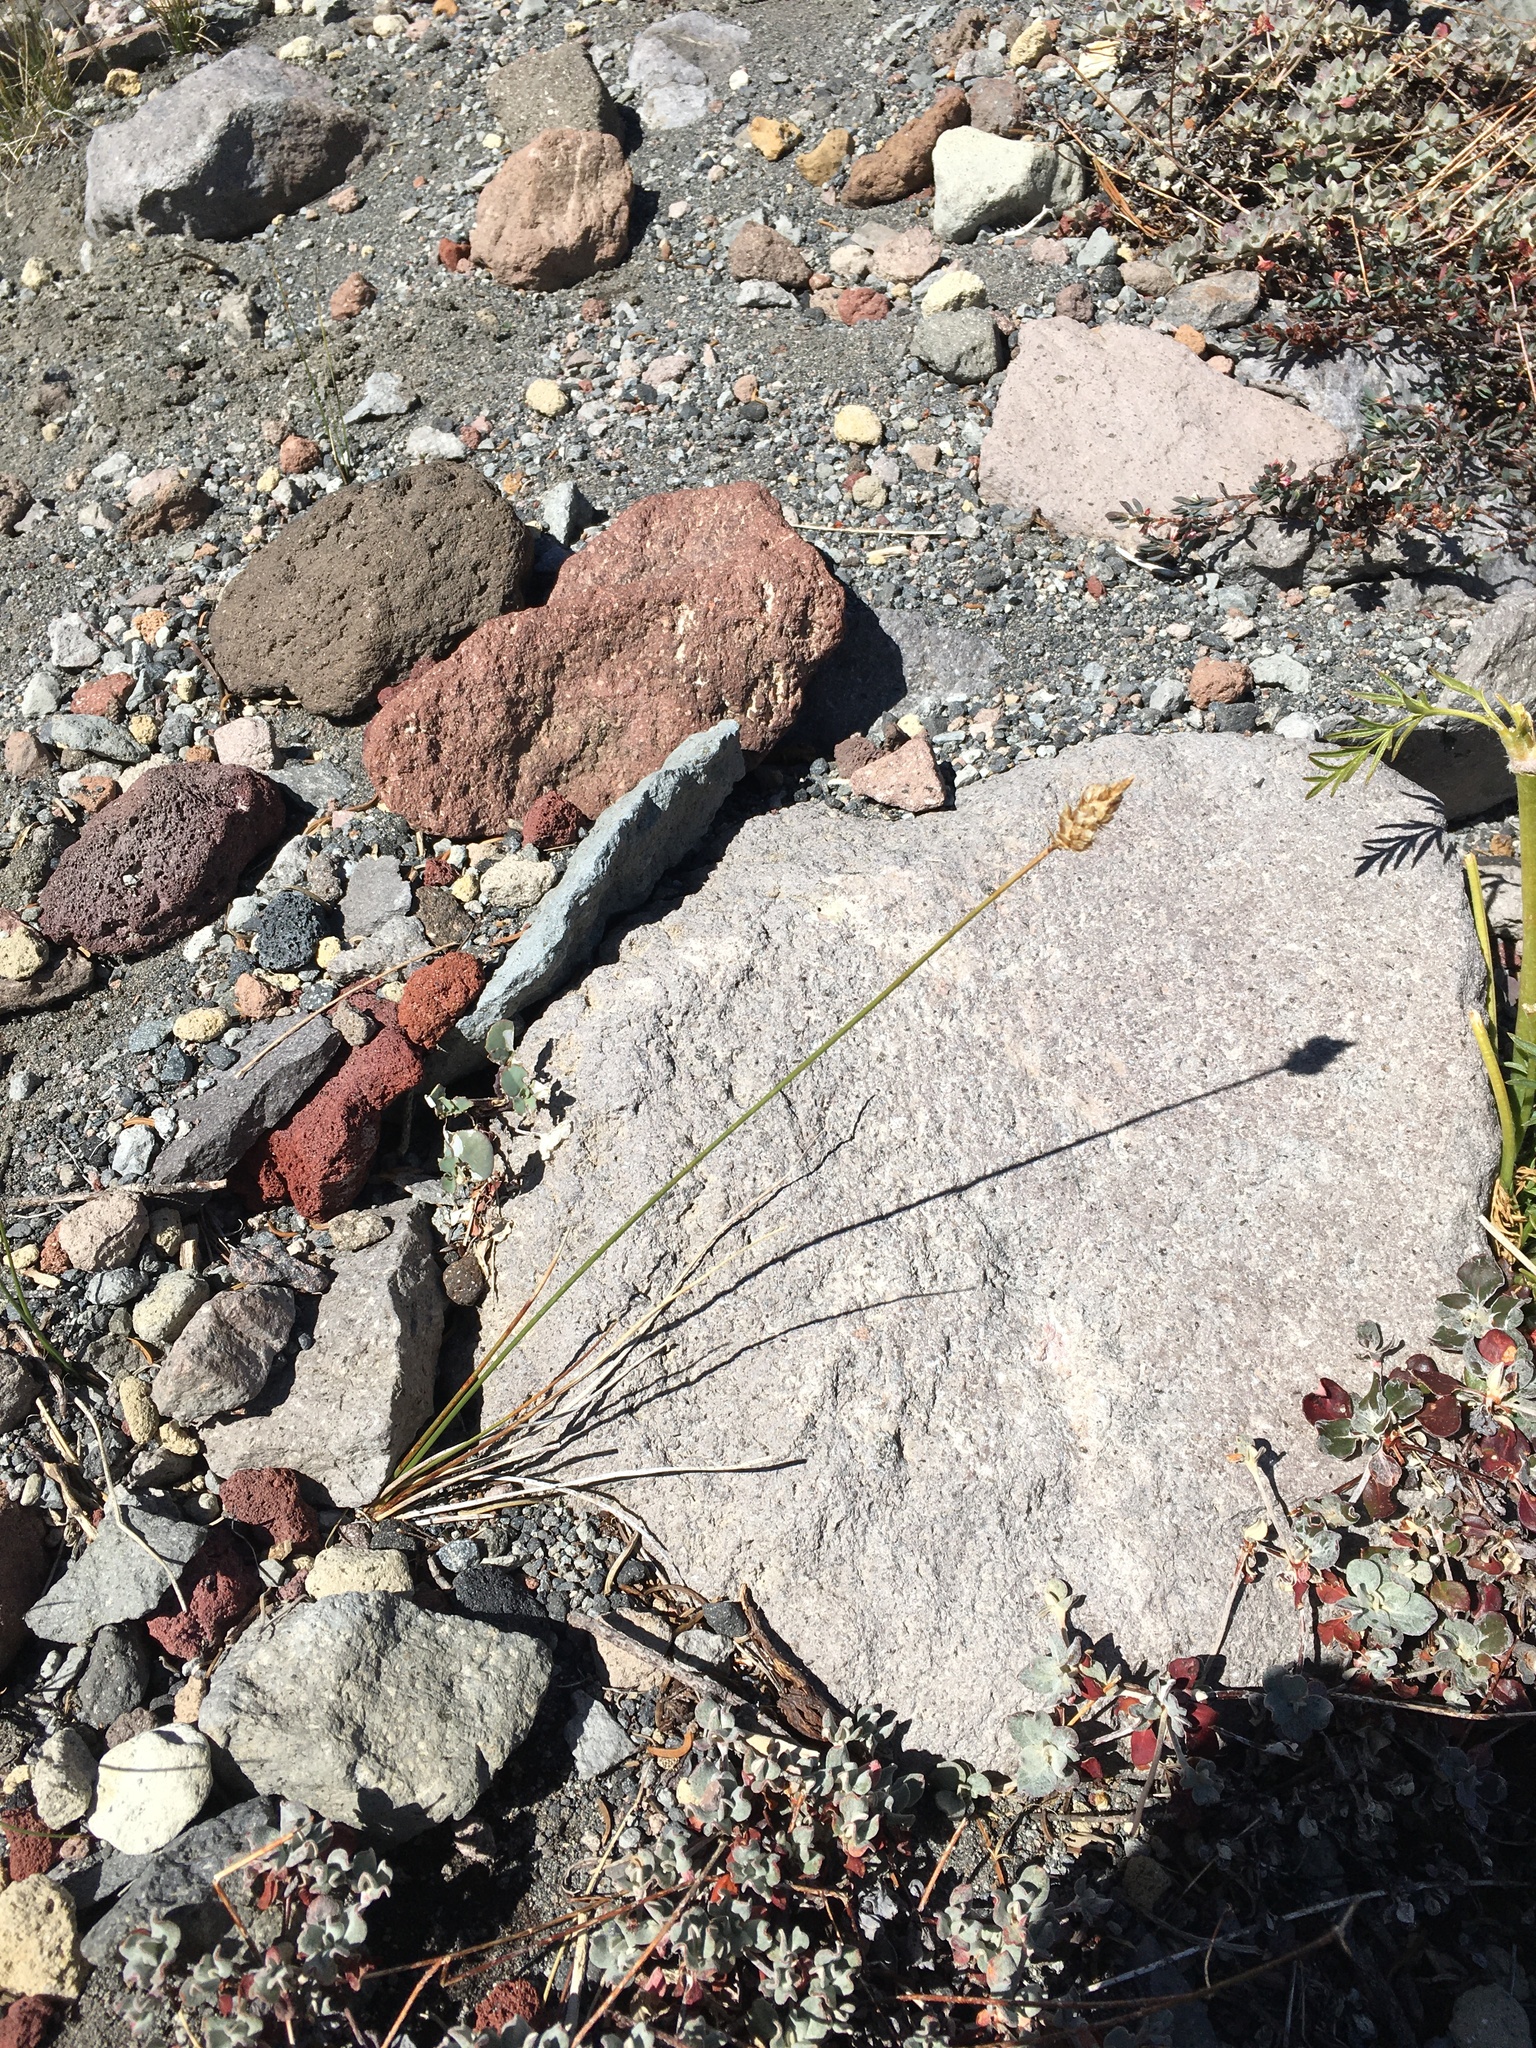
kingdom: Plantae
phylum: Tracheophyta
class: Liliopsida
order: Poales
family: Cyperaceae
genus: Carex
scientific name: Carex breweri
